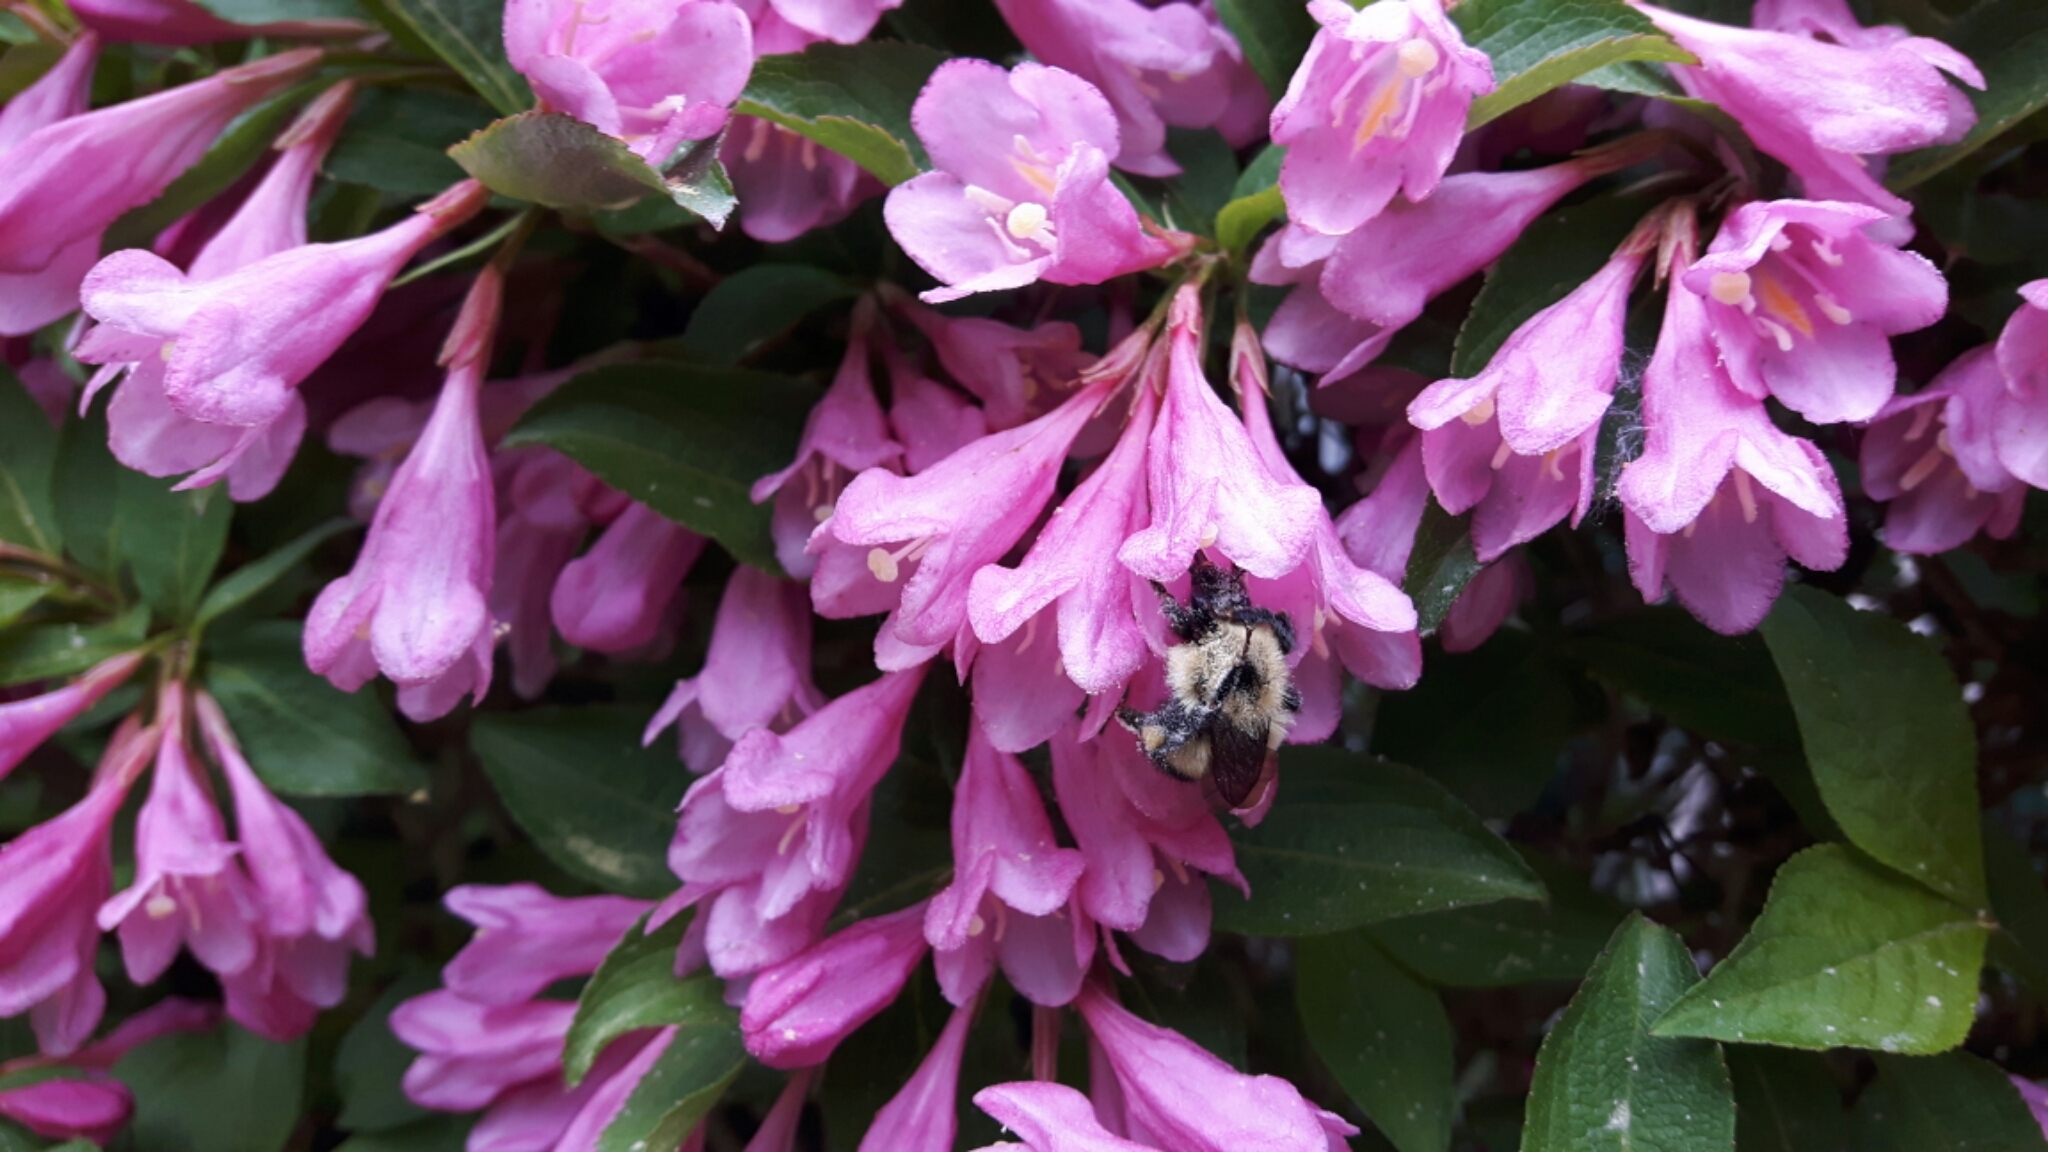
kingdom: Animalia
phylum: Arthropoda
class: Insecta
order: Hymenoptera
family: Apidae
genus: Pyrobombus
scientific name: Pyrobombus
